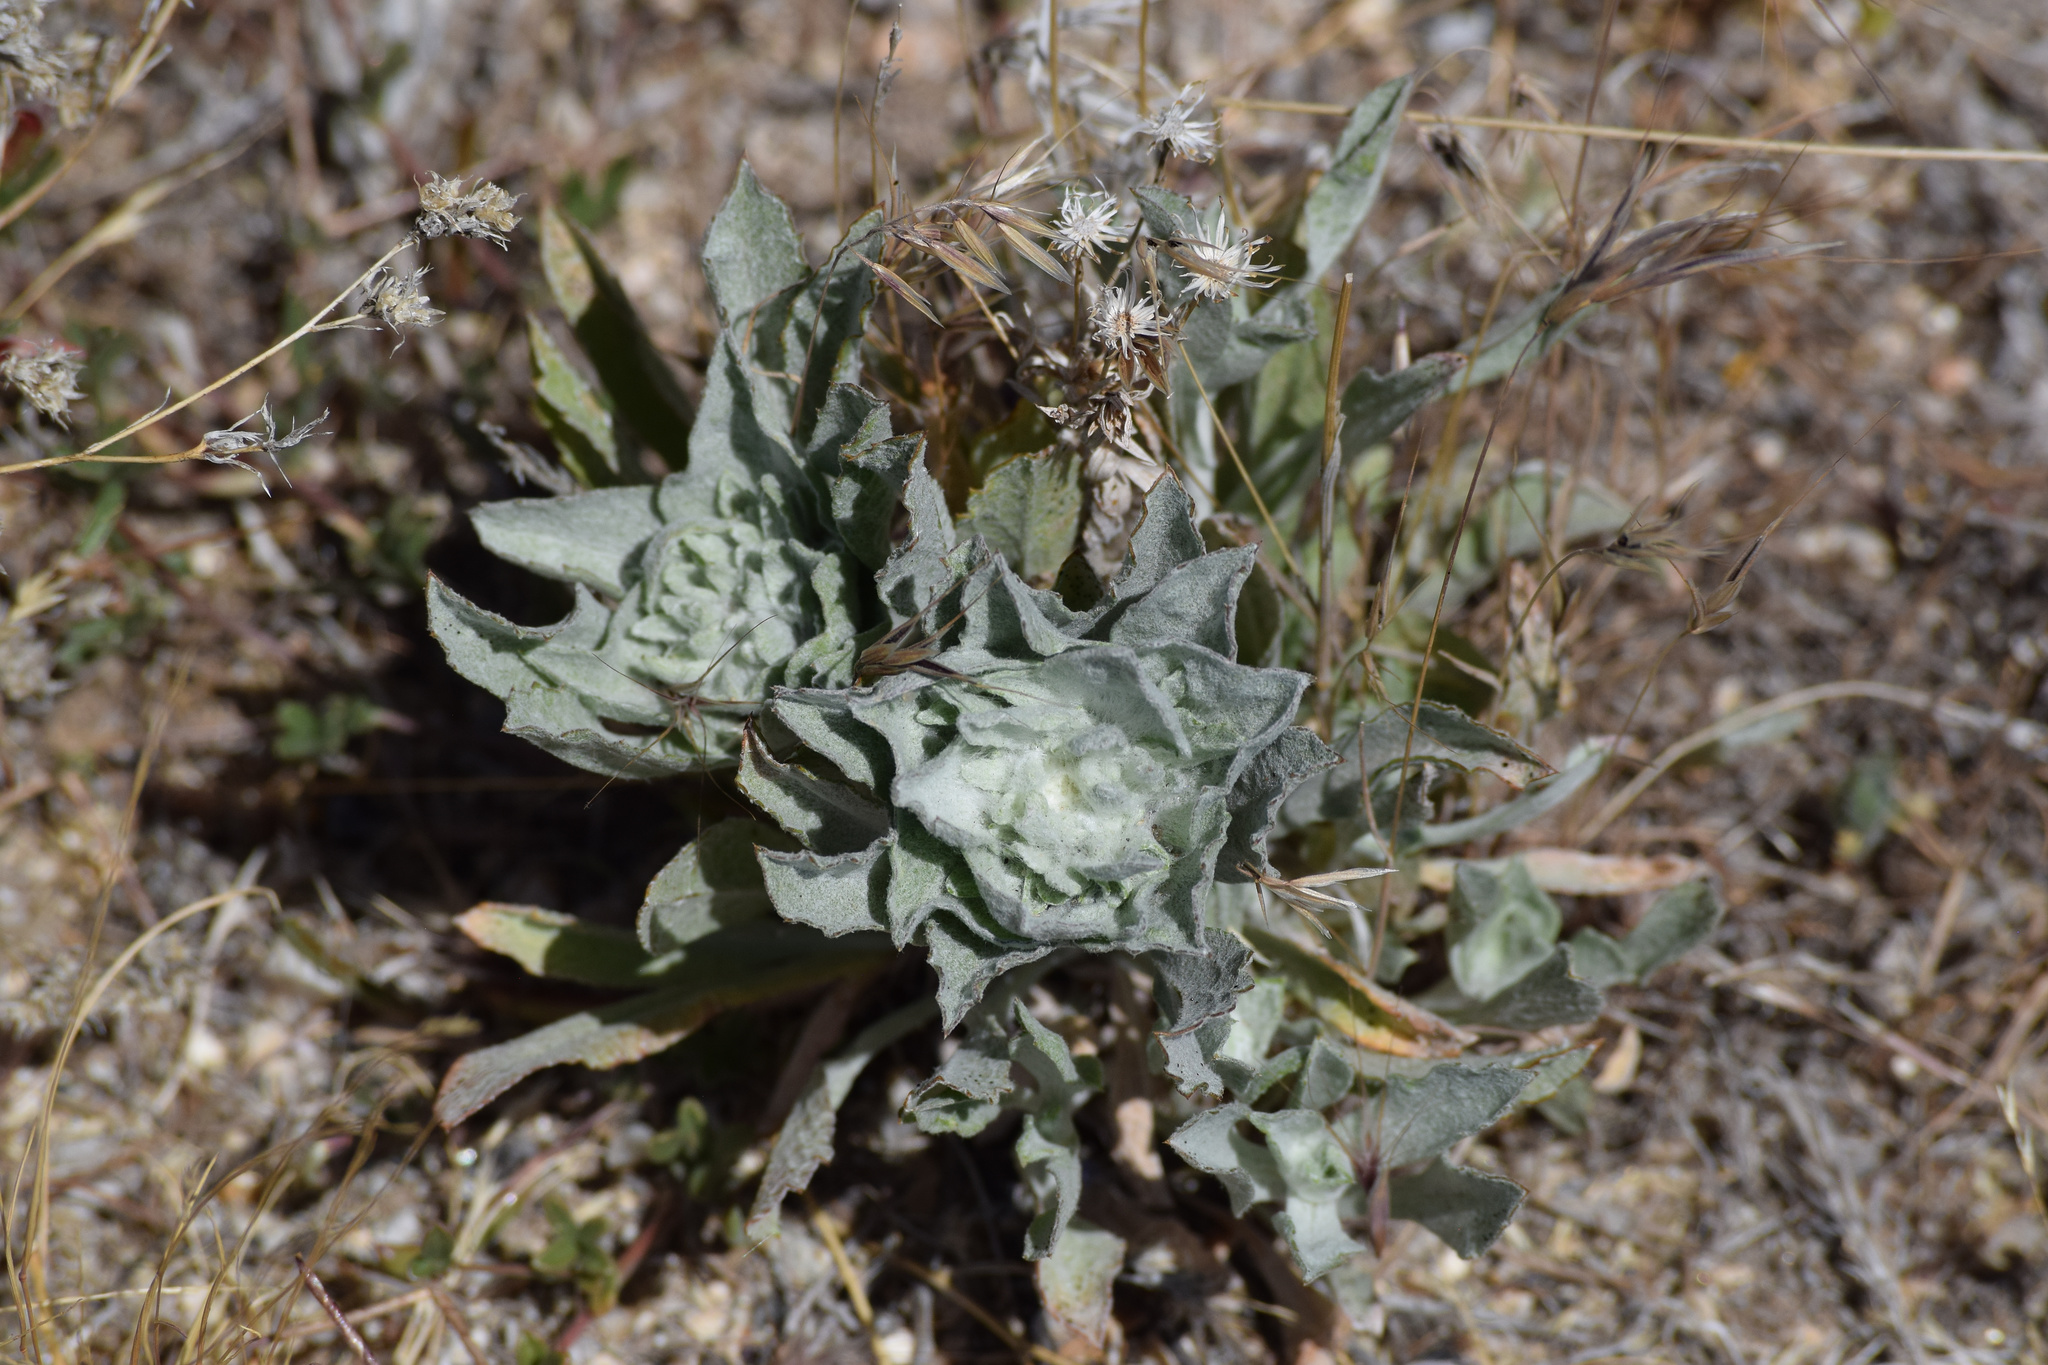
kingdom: Plantae
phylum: Tracheophyta
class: Magnoliopsida
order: Asterales
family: Asteraceae
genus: Corethrogyne
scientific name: Corethrogyne filaginifolia
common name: Sand-aster
